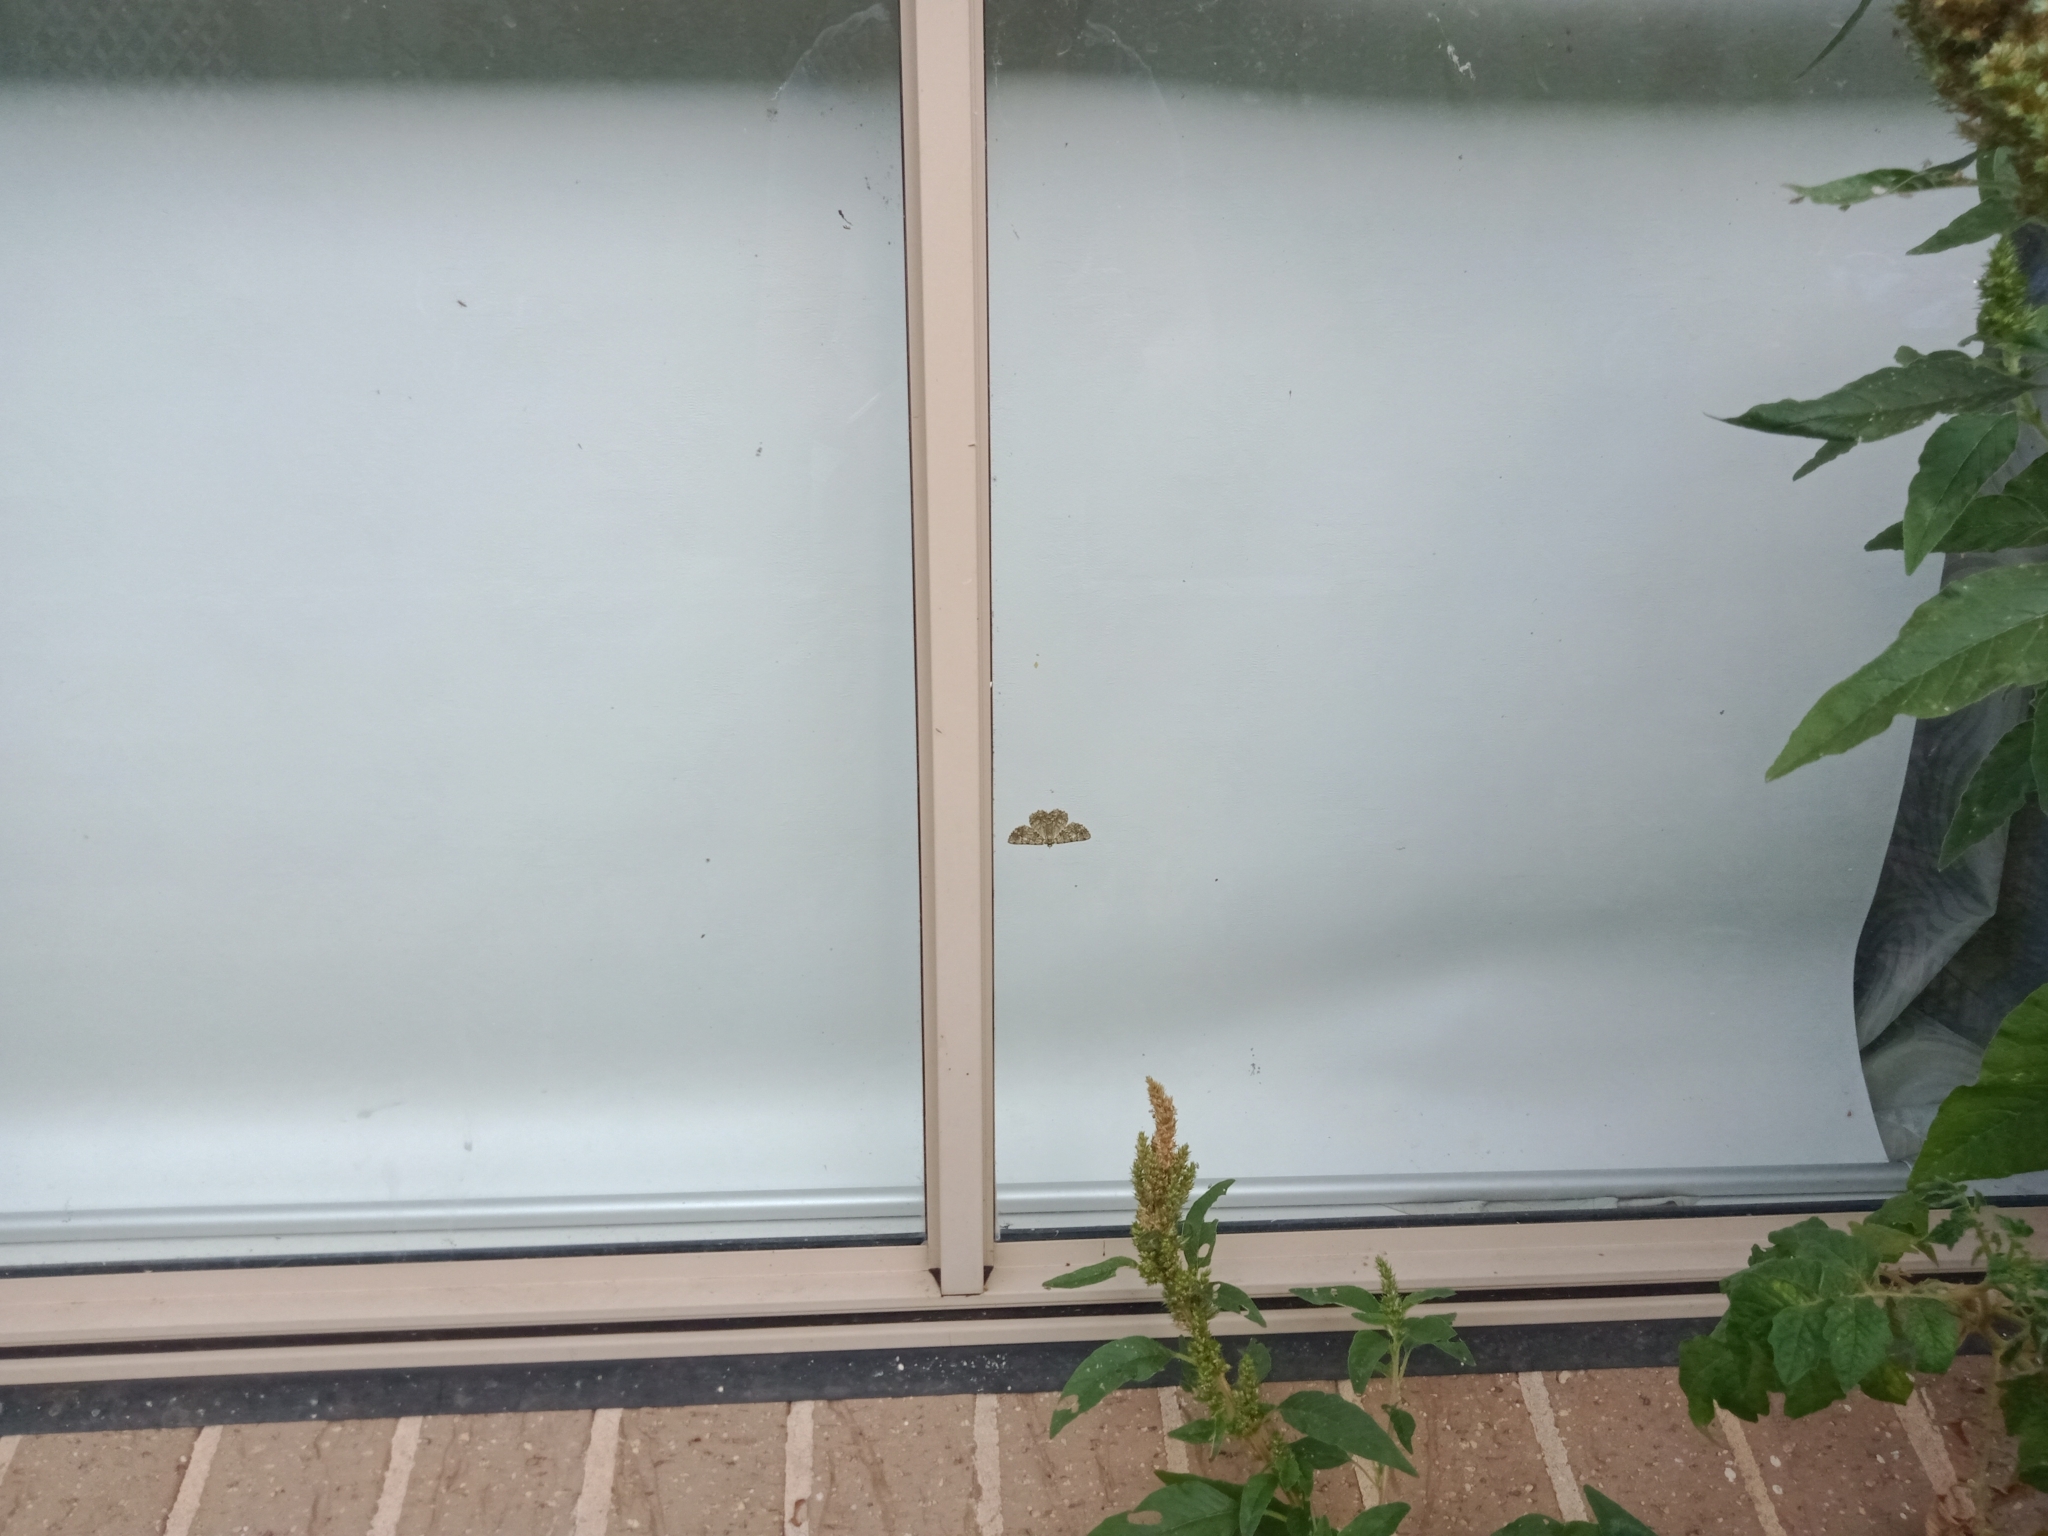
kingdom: Animalia
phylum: Arthropoda
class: Insecta
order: Lepidoptera
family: Geometridae
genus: Crypsiphona
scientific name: Crypsiphona ocultaria
